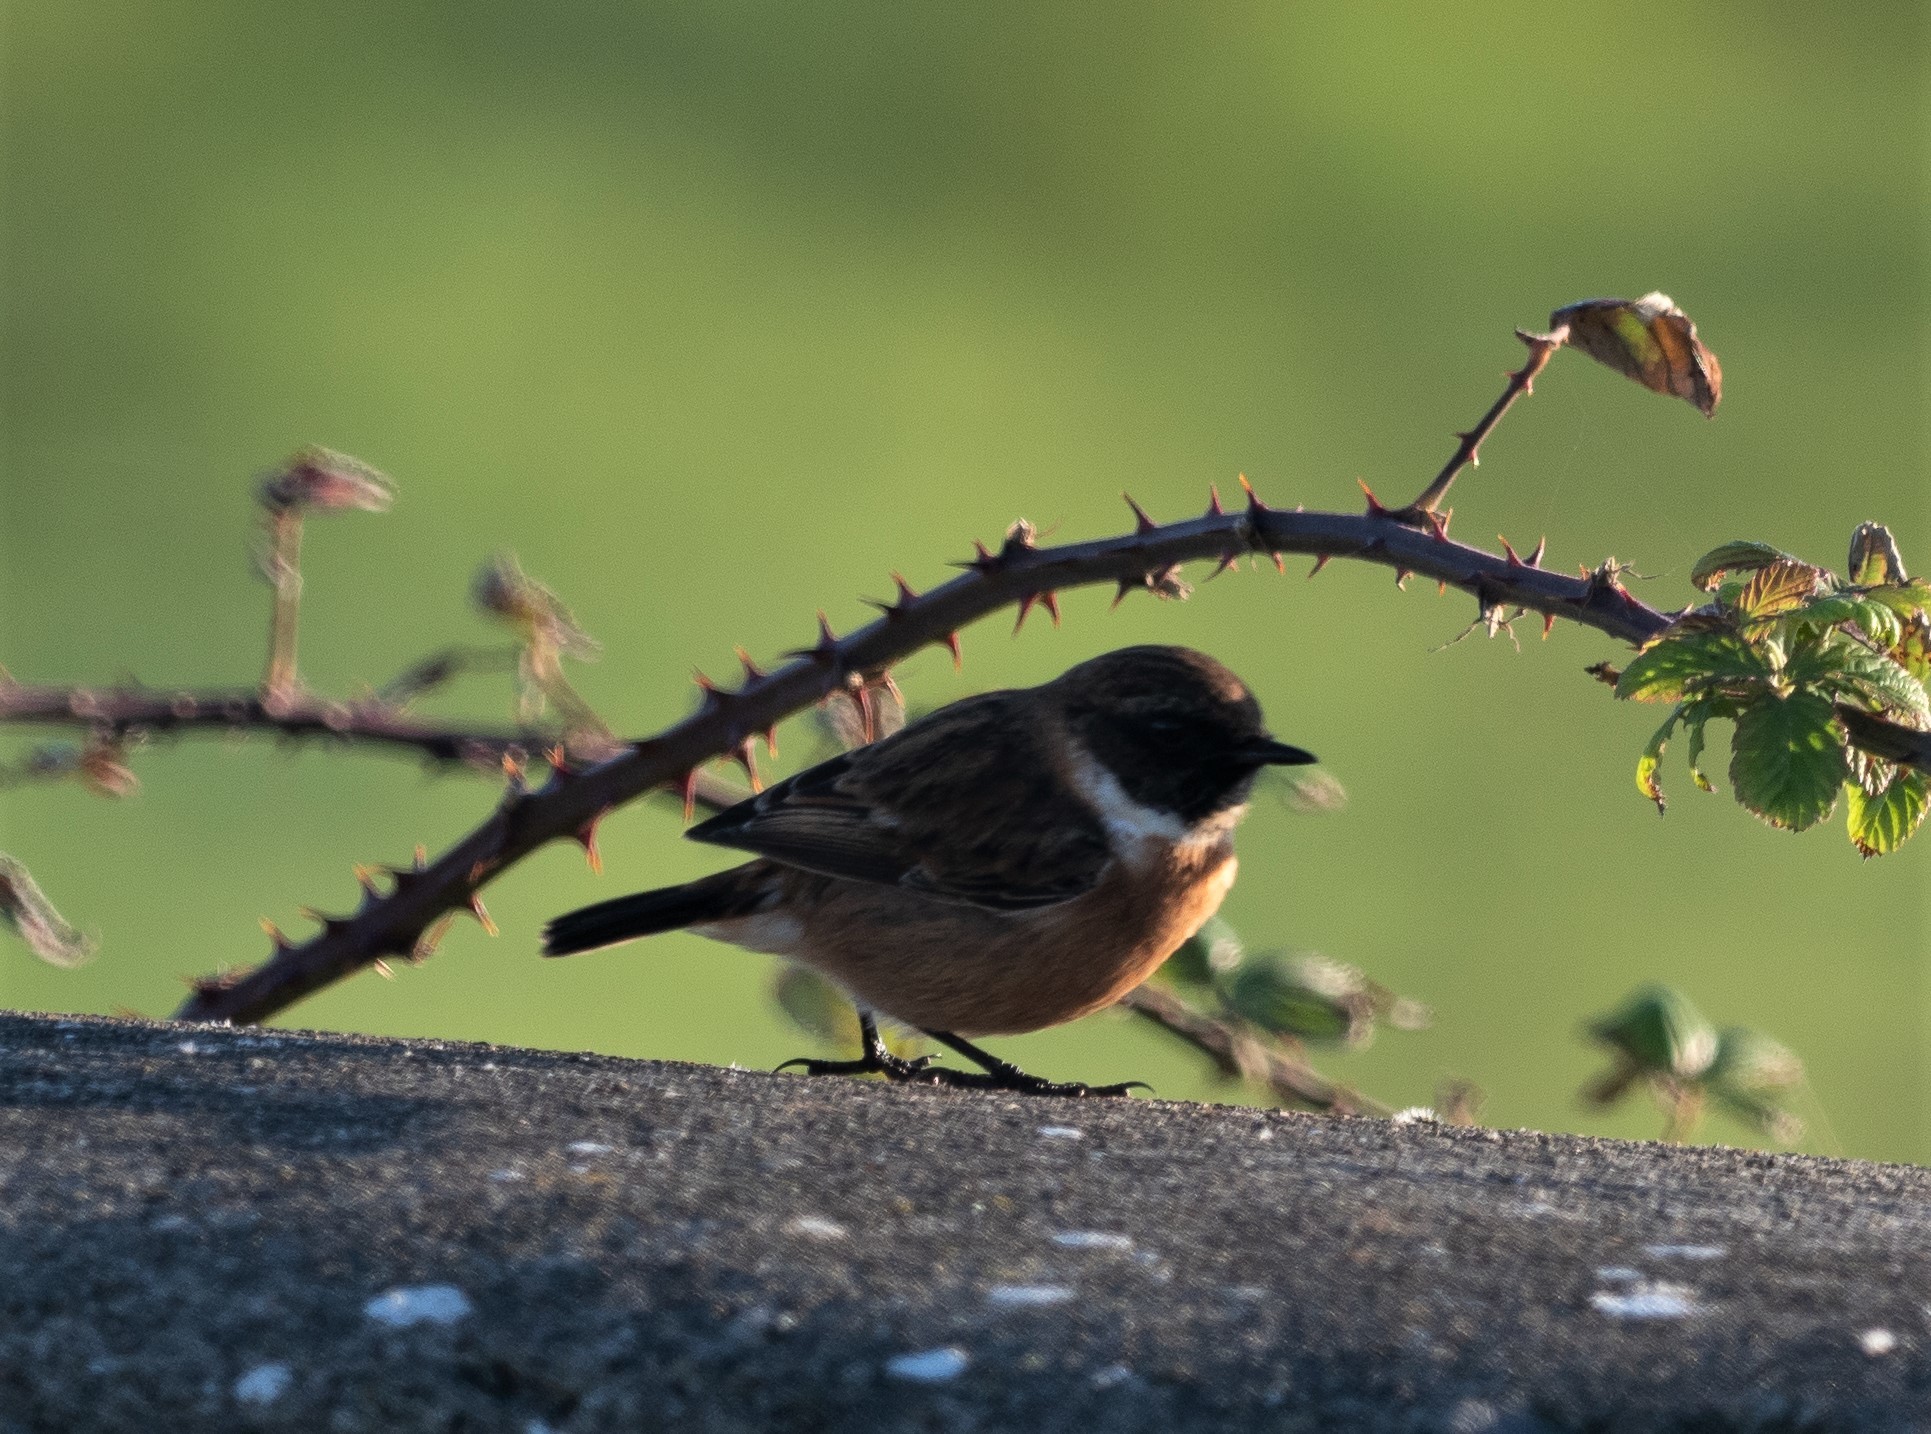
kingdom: Animalia
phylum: Chordata
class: Aves
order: Passeriformes
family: Muscicapidae
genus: Saxicola
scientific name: Saxicola rubicola
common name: European stonechat
